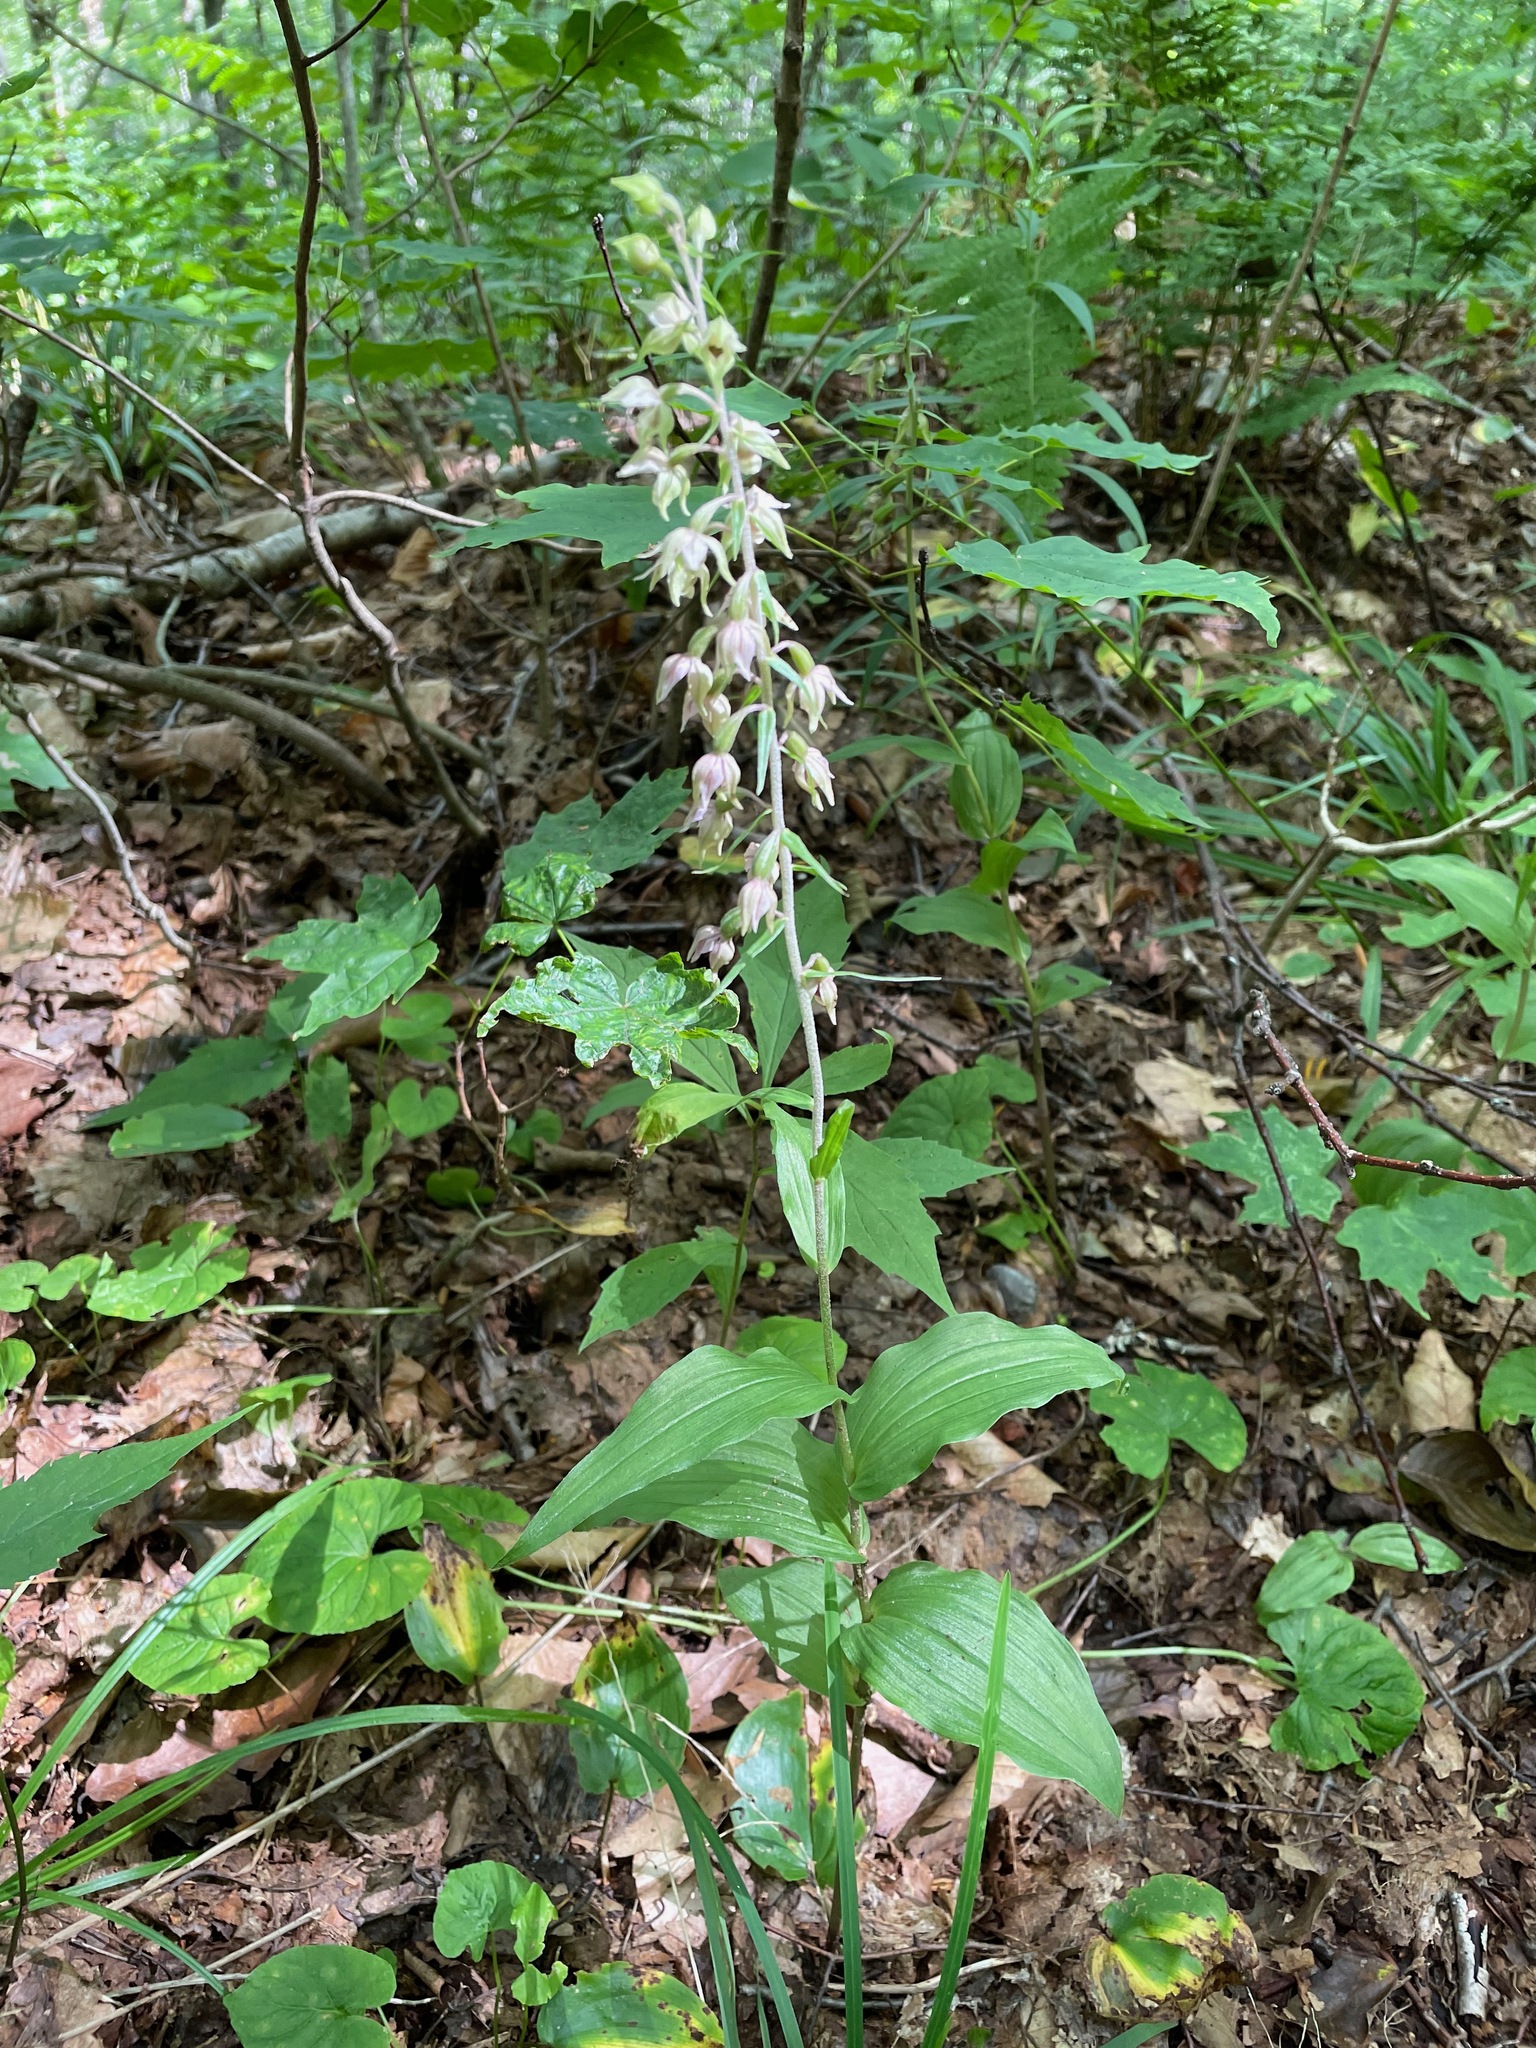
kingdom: Plantae
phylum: Tracheophyta
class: Liliopsida
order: Asparagales
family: Orchidaceae
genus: Epipactis
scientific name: Epipactis helleborine
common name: Broad-leaved helleborine
